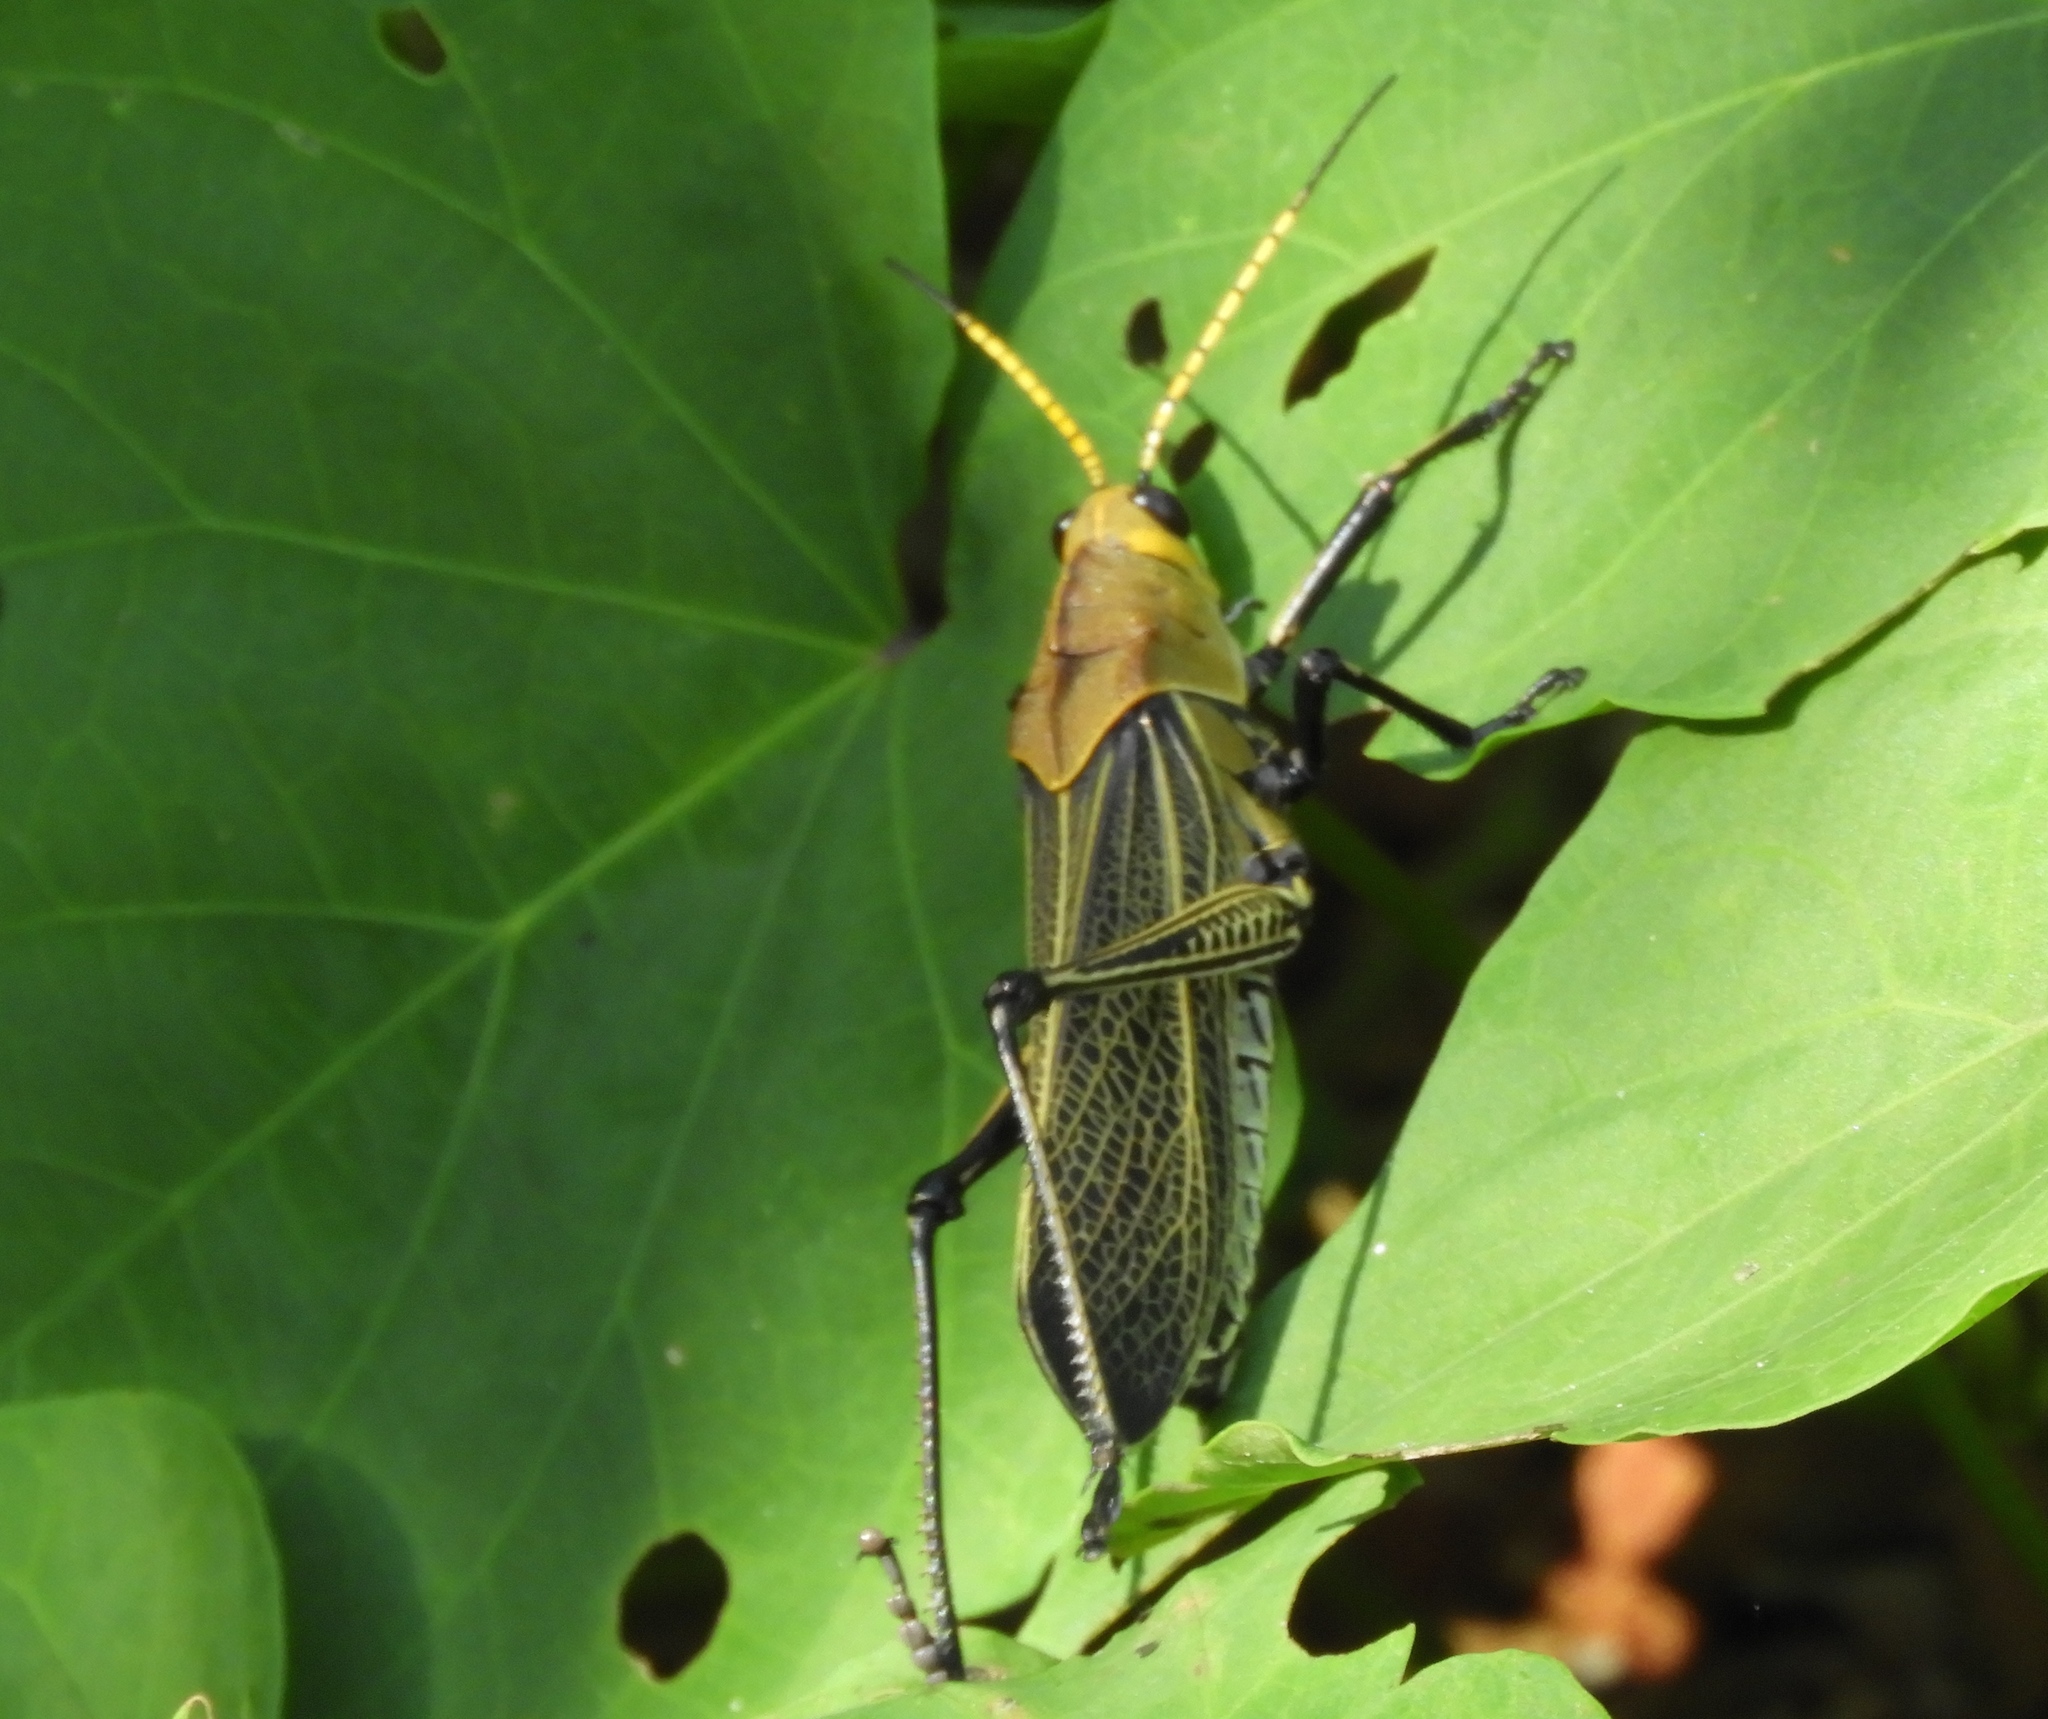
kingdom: Animalia
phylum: Arthropoda
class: Insecta
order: Orthoptera
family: Romaleidae
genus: Romalea
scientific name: Romalea
